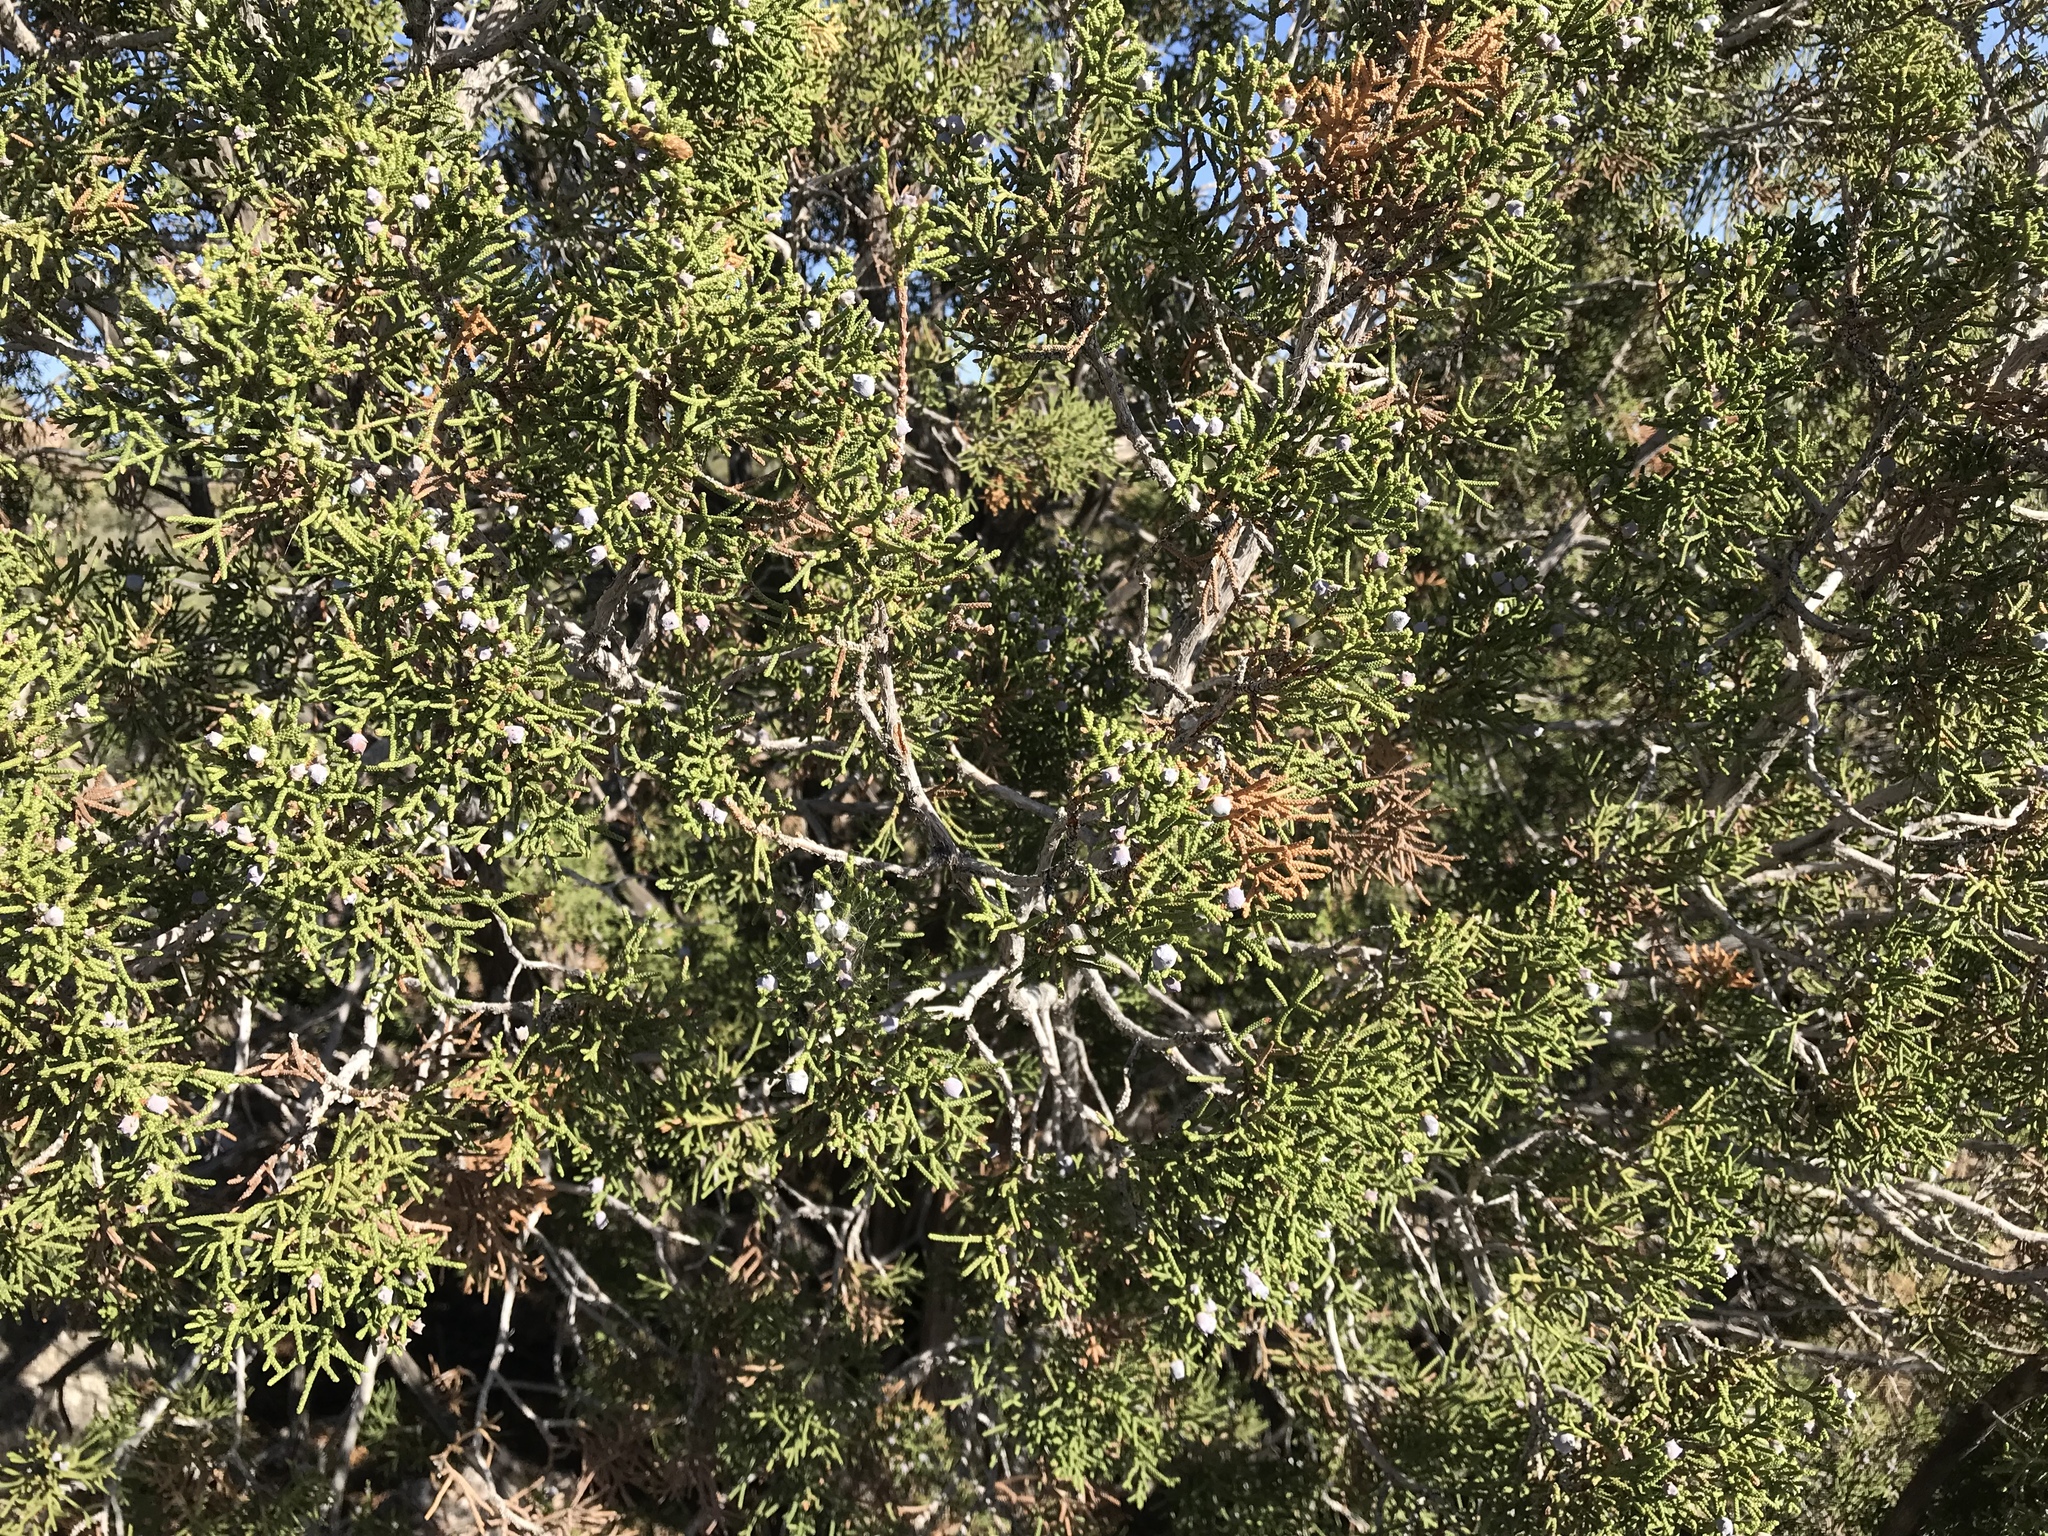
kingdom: Plantae
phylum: Tracheophyta
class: Pinopsida
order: Pinales
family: Cupressaceae
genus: Juniperus
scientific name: Juniperus californica
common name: California juniper
